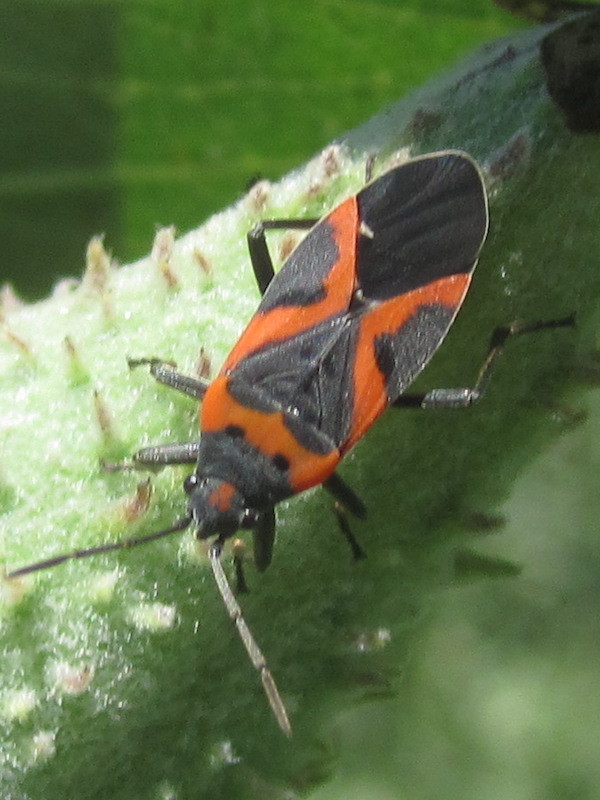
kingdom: Animalia
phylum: Arthropoda
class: Insecta
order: Hemiptera
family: Lygaeidae
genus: Lygaeus
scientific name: Lygaeus kalmii
